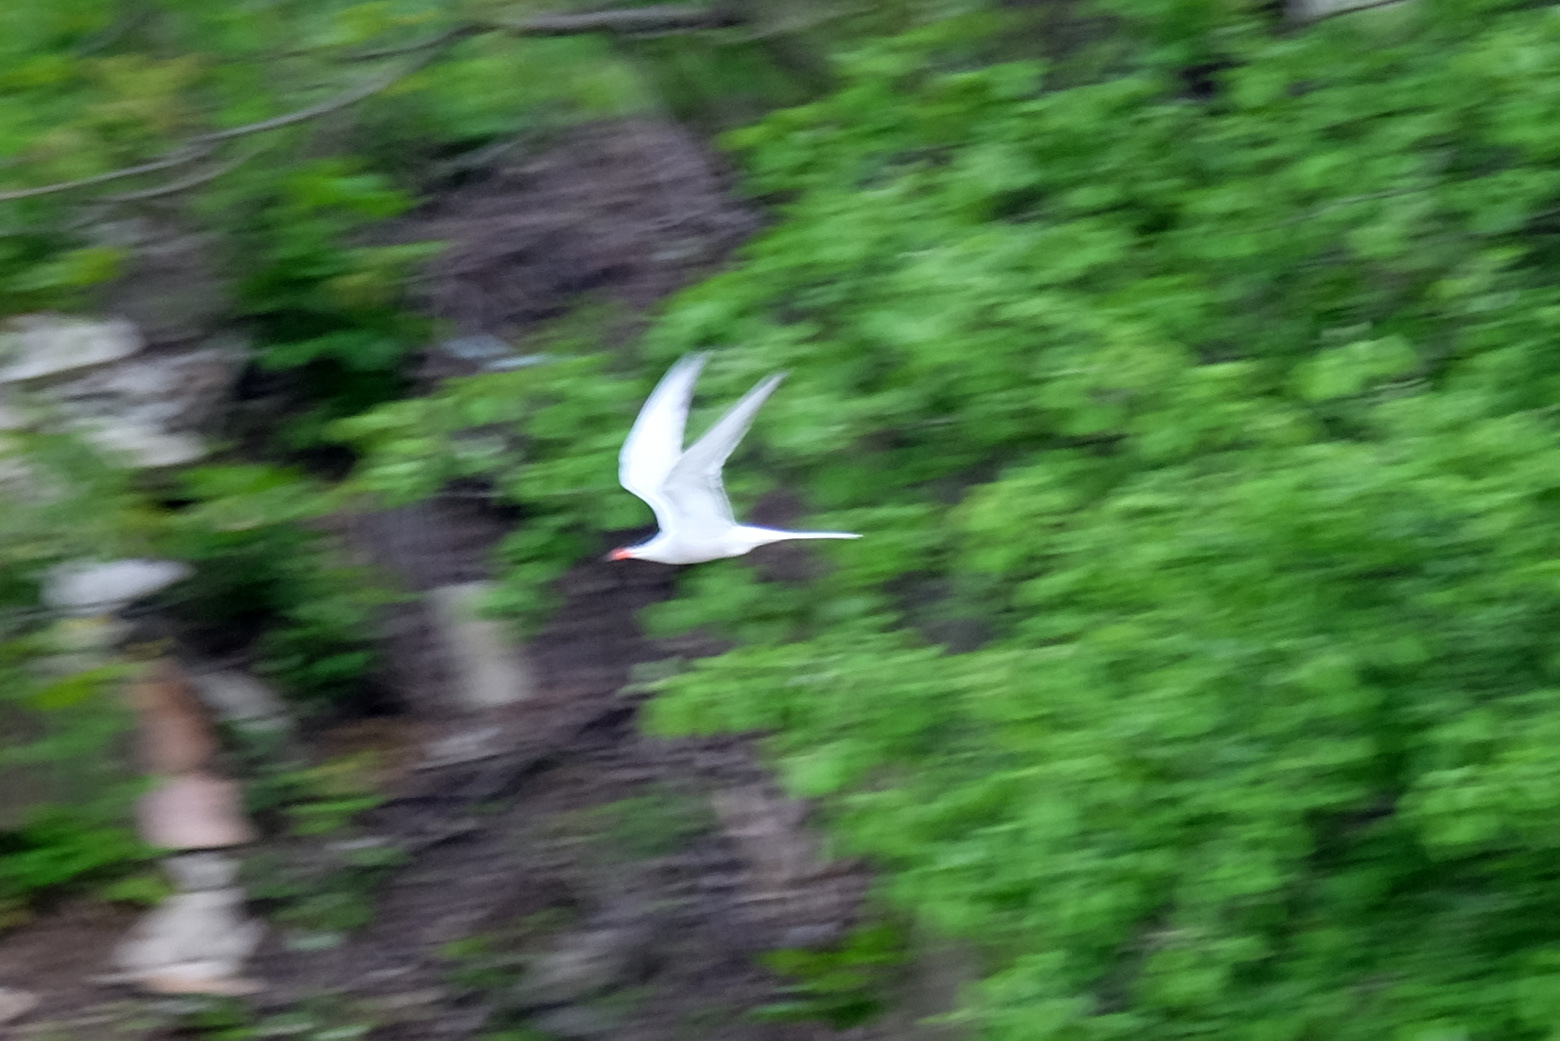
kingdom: Animalia
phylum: Chordata
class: Aves
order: Charadriiformes
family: Laridae
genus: Sterna
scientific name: Sterna hirundo
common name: Common tern
